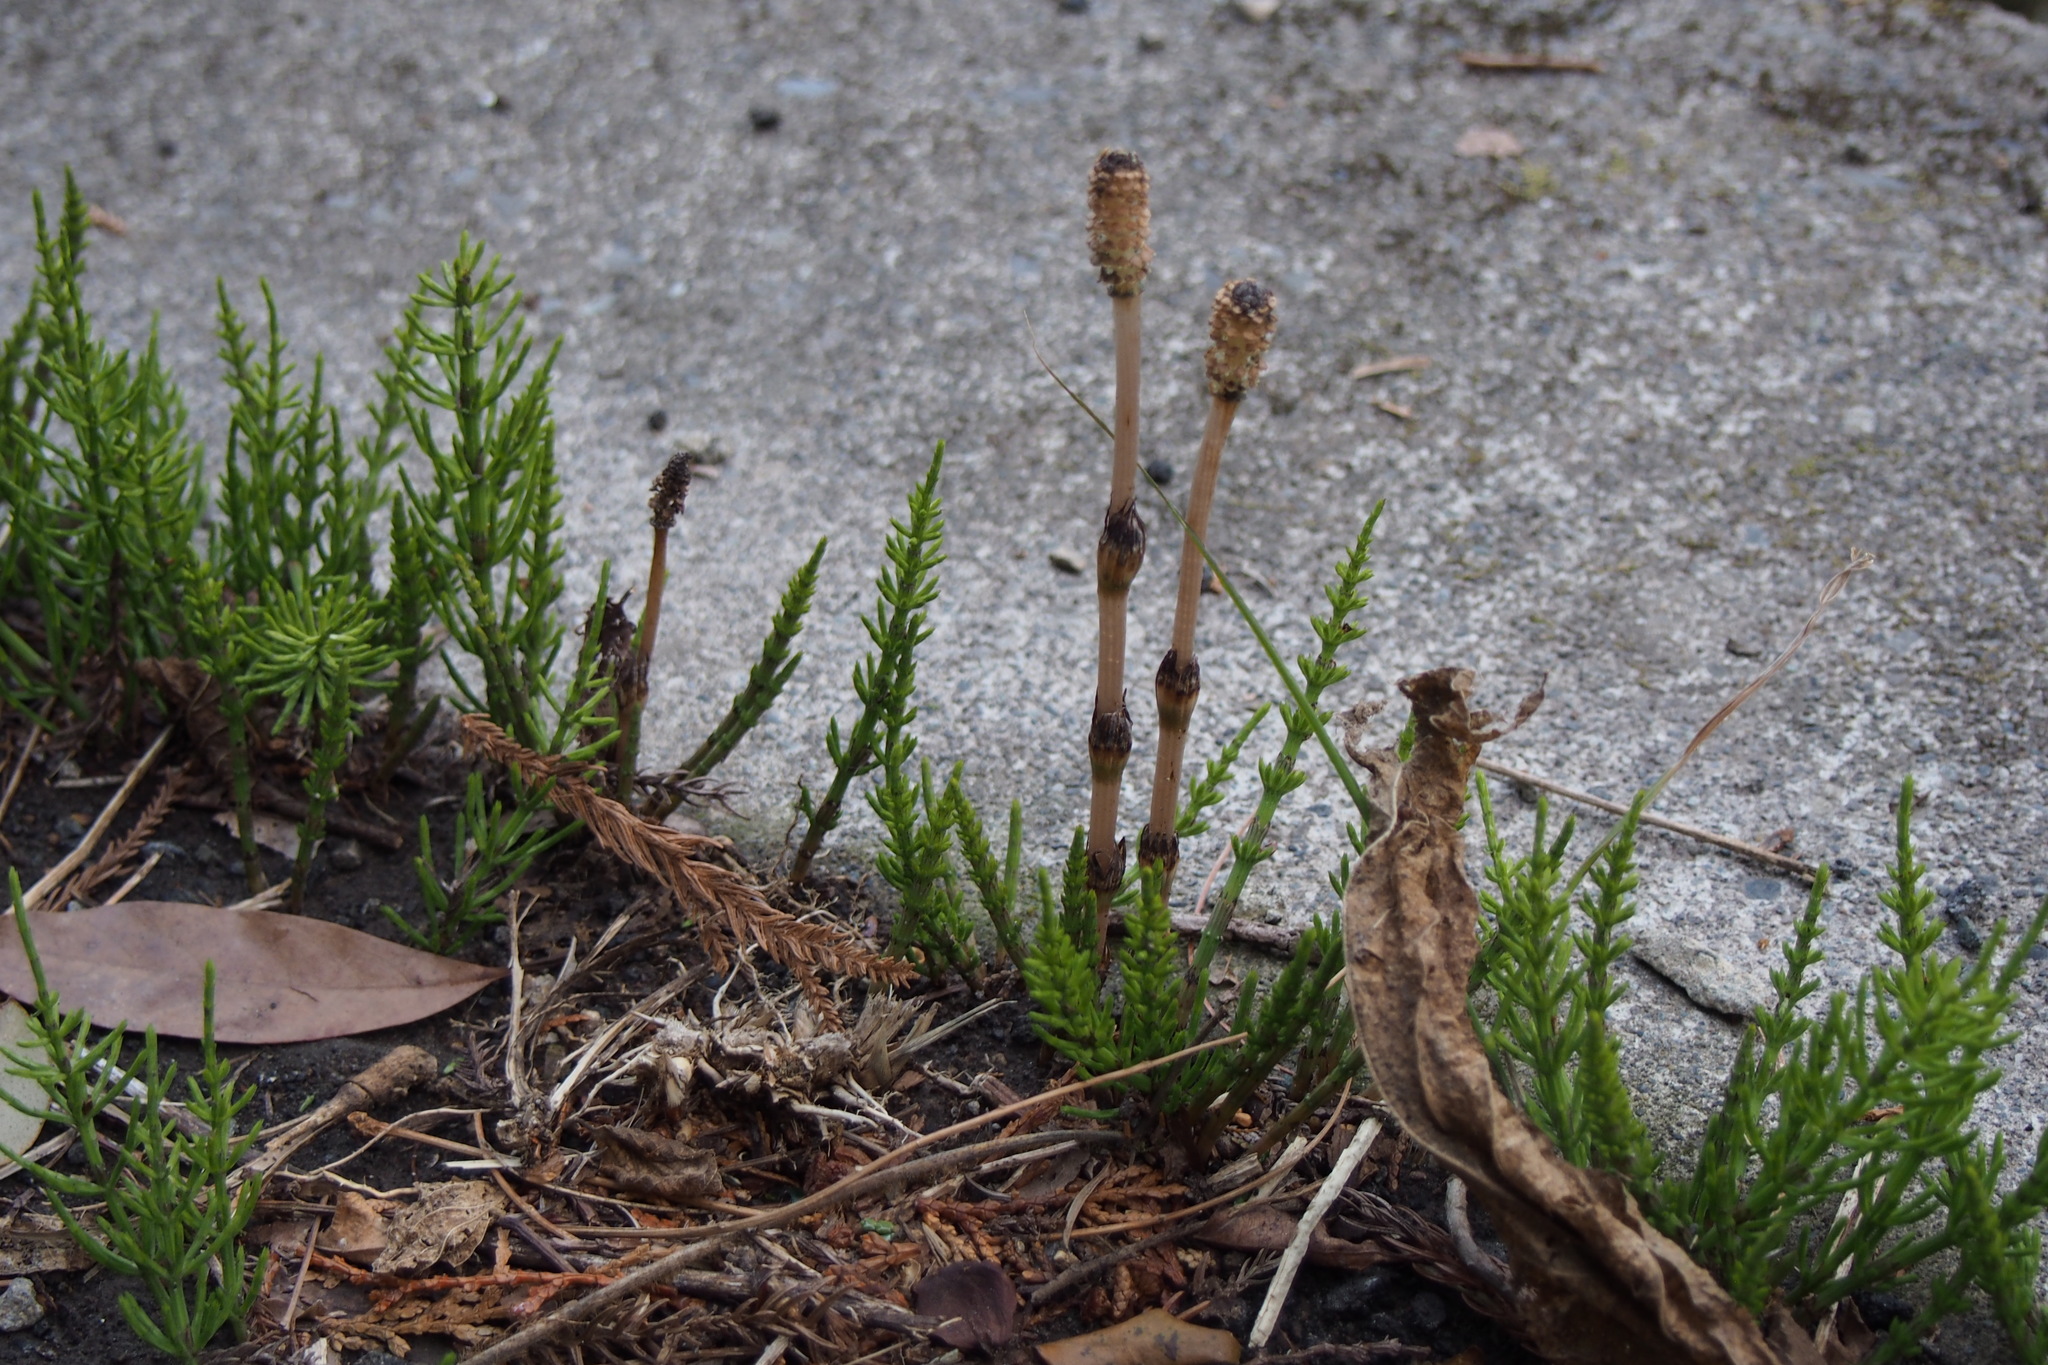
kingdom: Plantae
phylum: Tracheophyta
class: Polypodiopsida
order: Equisetales
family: Equisetaceae
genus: Equisetum
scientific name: Equisetum arvense
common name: Field horsetail
